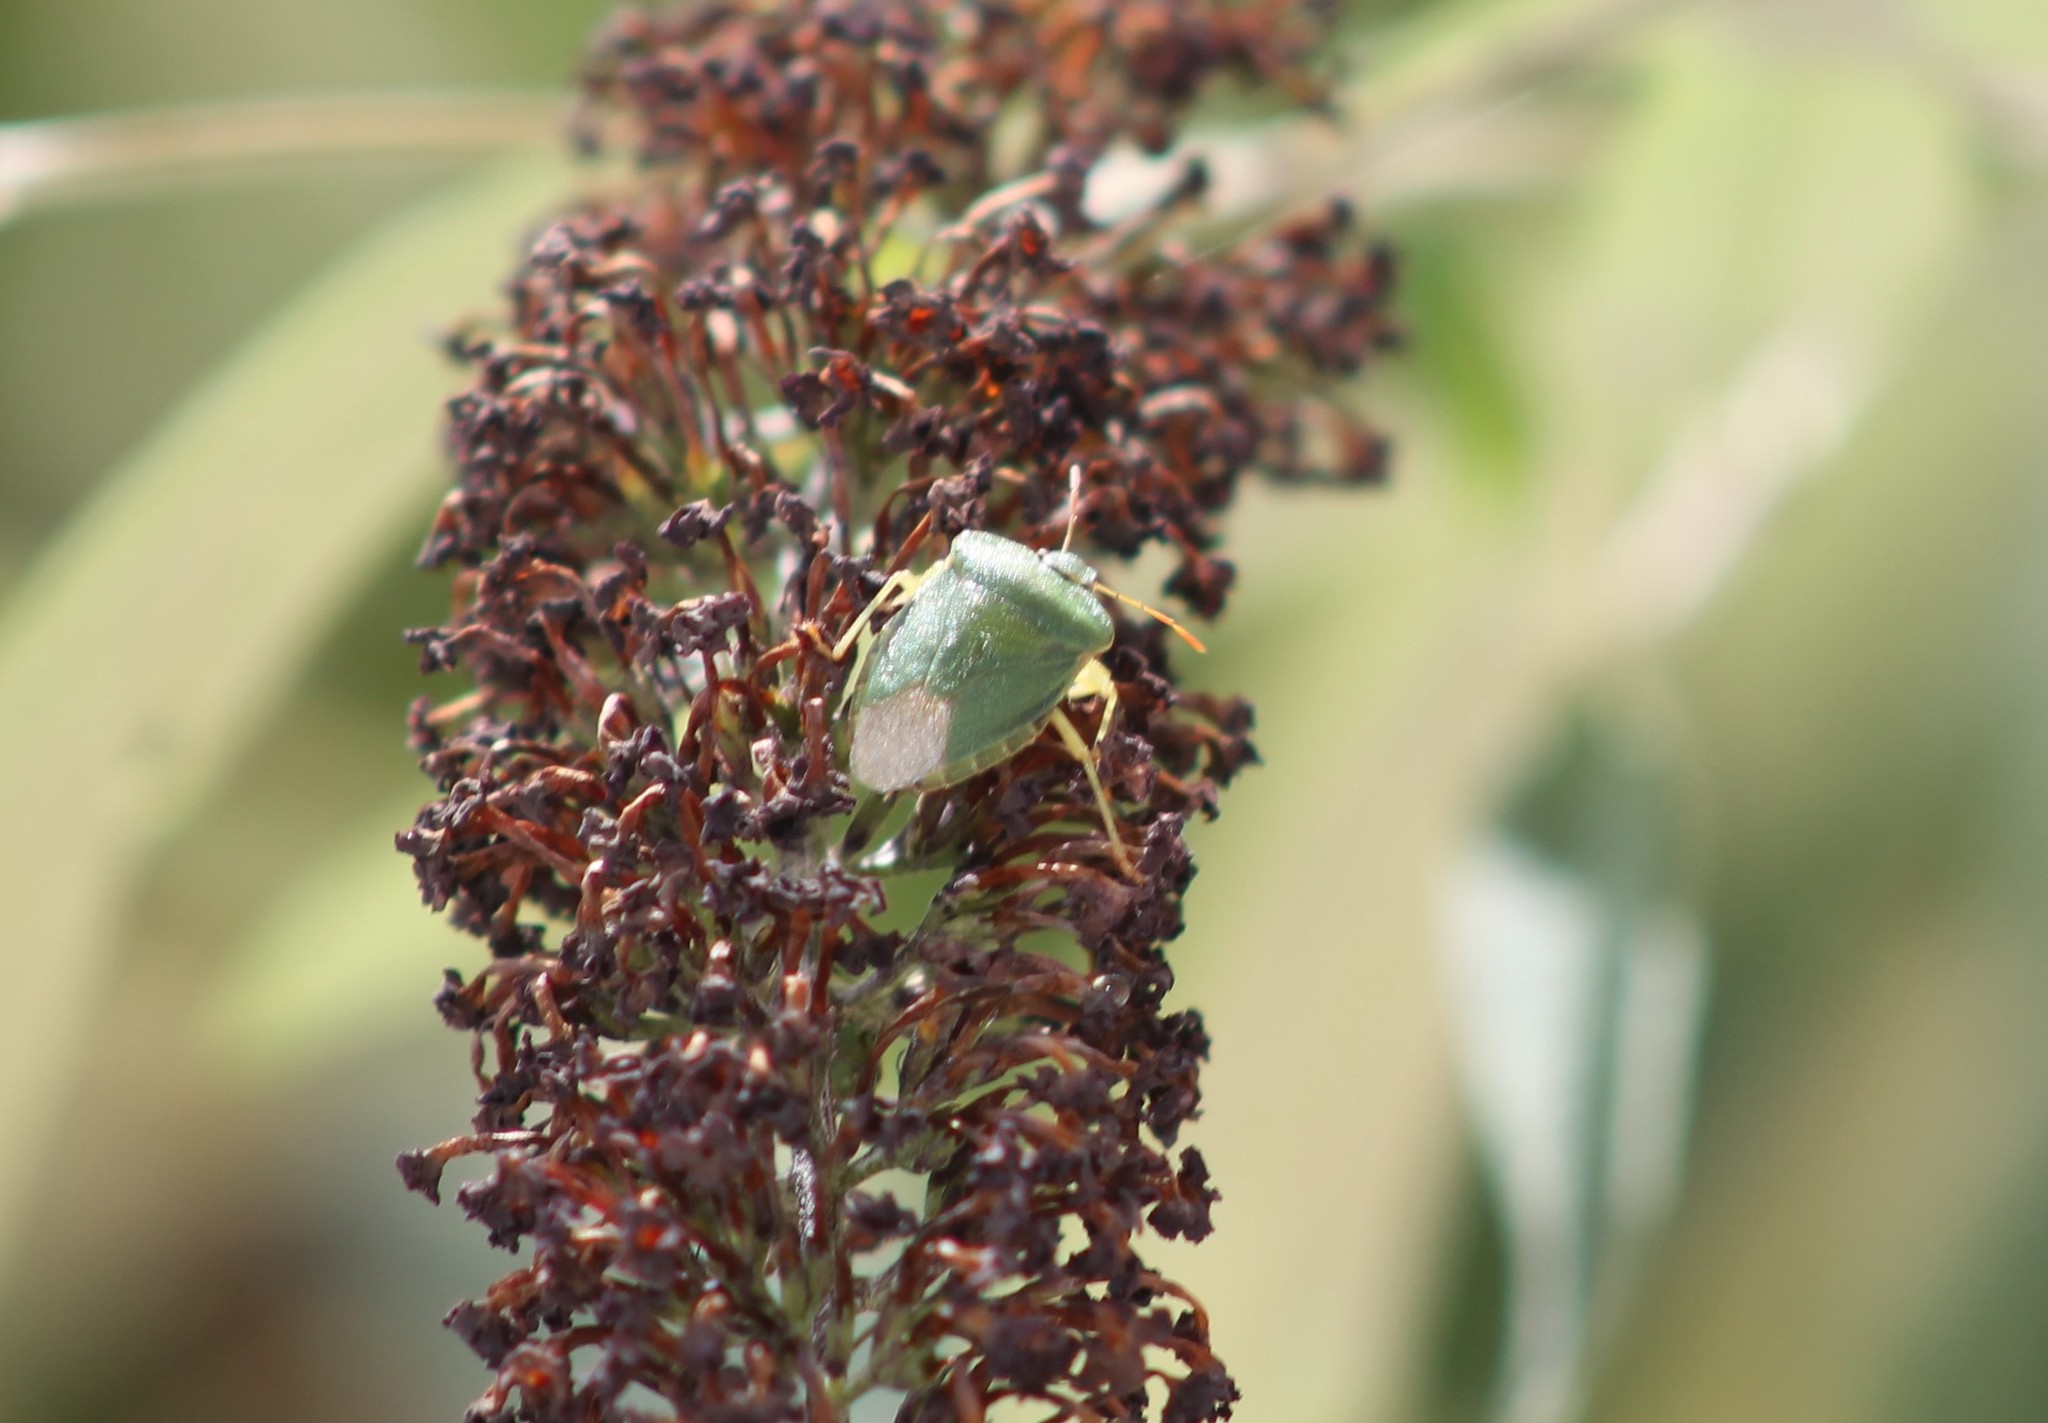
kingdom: Animalia
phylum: Arthropoda
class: Insecta
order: Hemiptera
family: Pentatomidae
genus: Palomena
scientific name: Palomena prasina
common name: Green shieldbug
